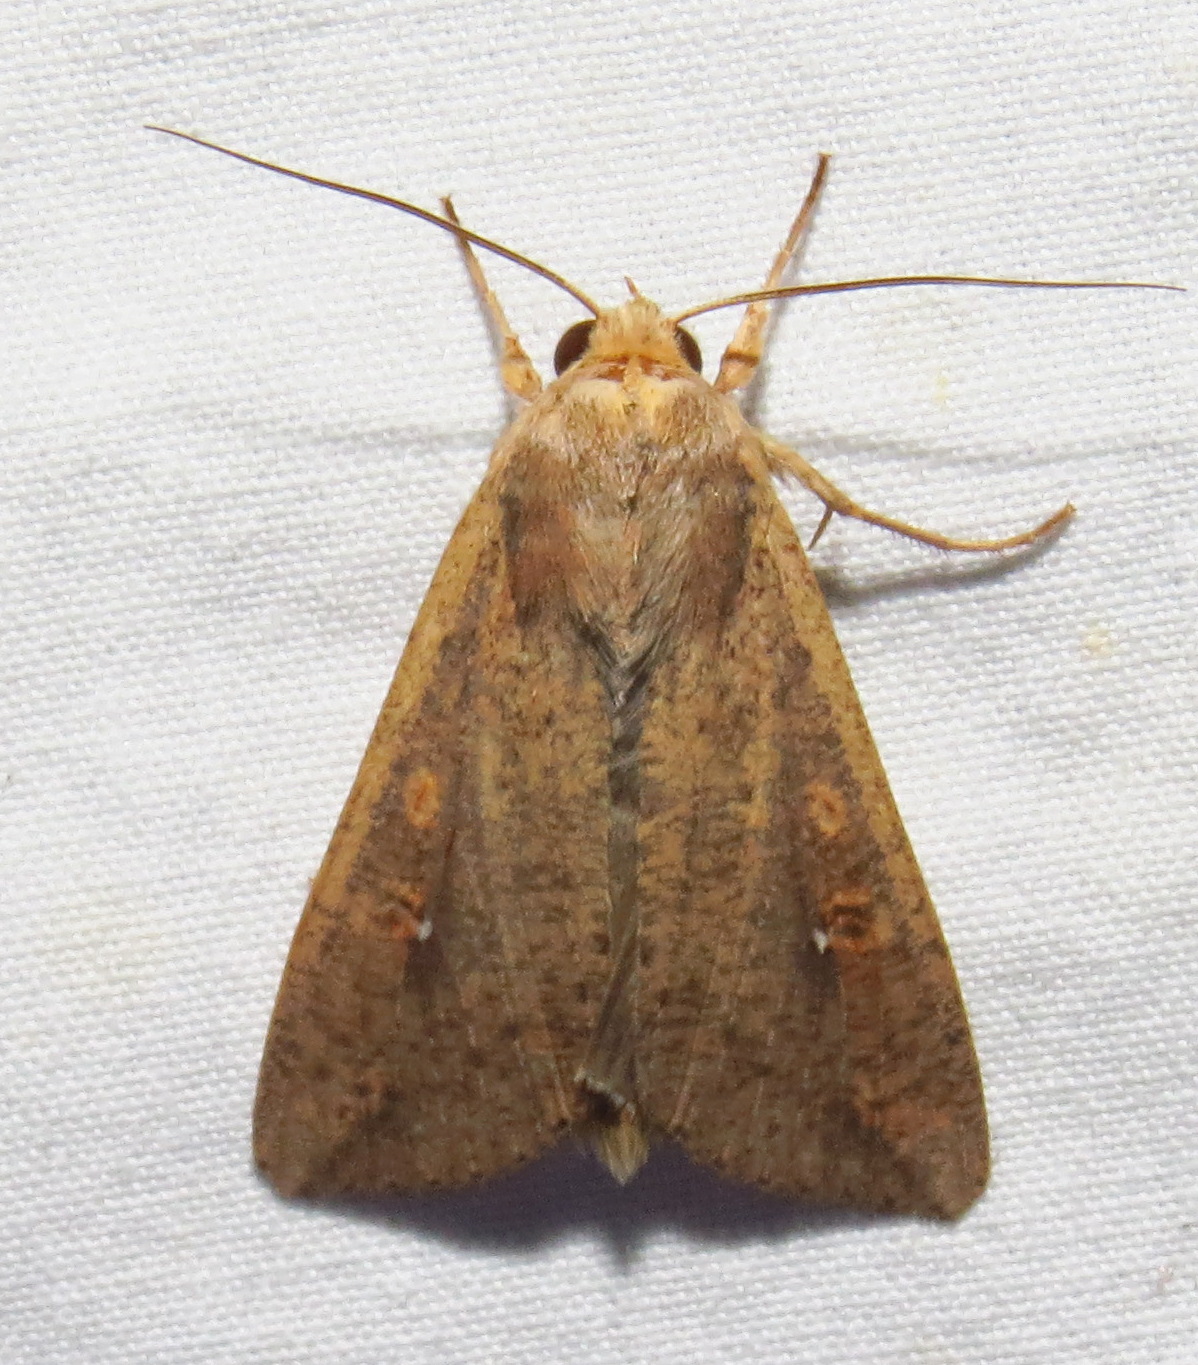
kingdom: Animalia
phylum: Arthropoda
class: Insecta
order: Lepidoptera
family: Noctuidae
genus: Mythimna
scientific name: Mythimna unipuncta
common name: White-speck
